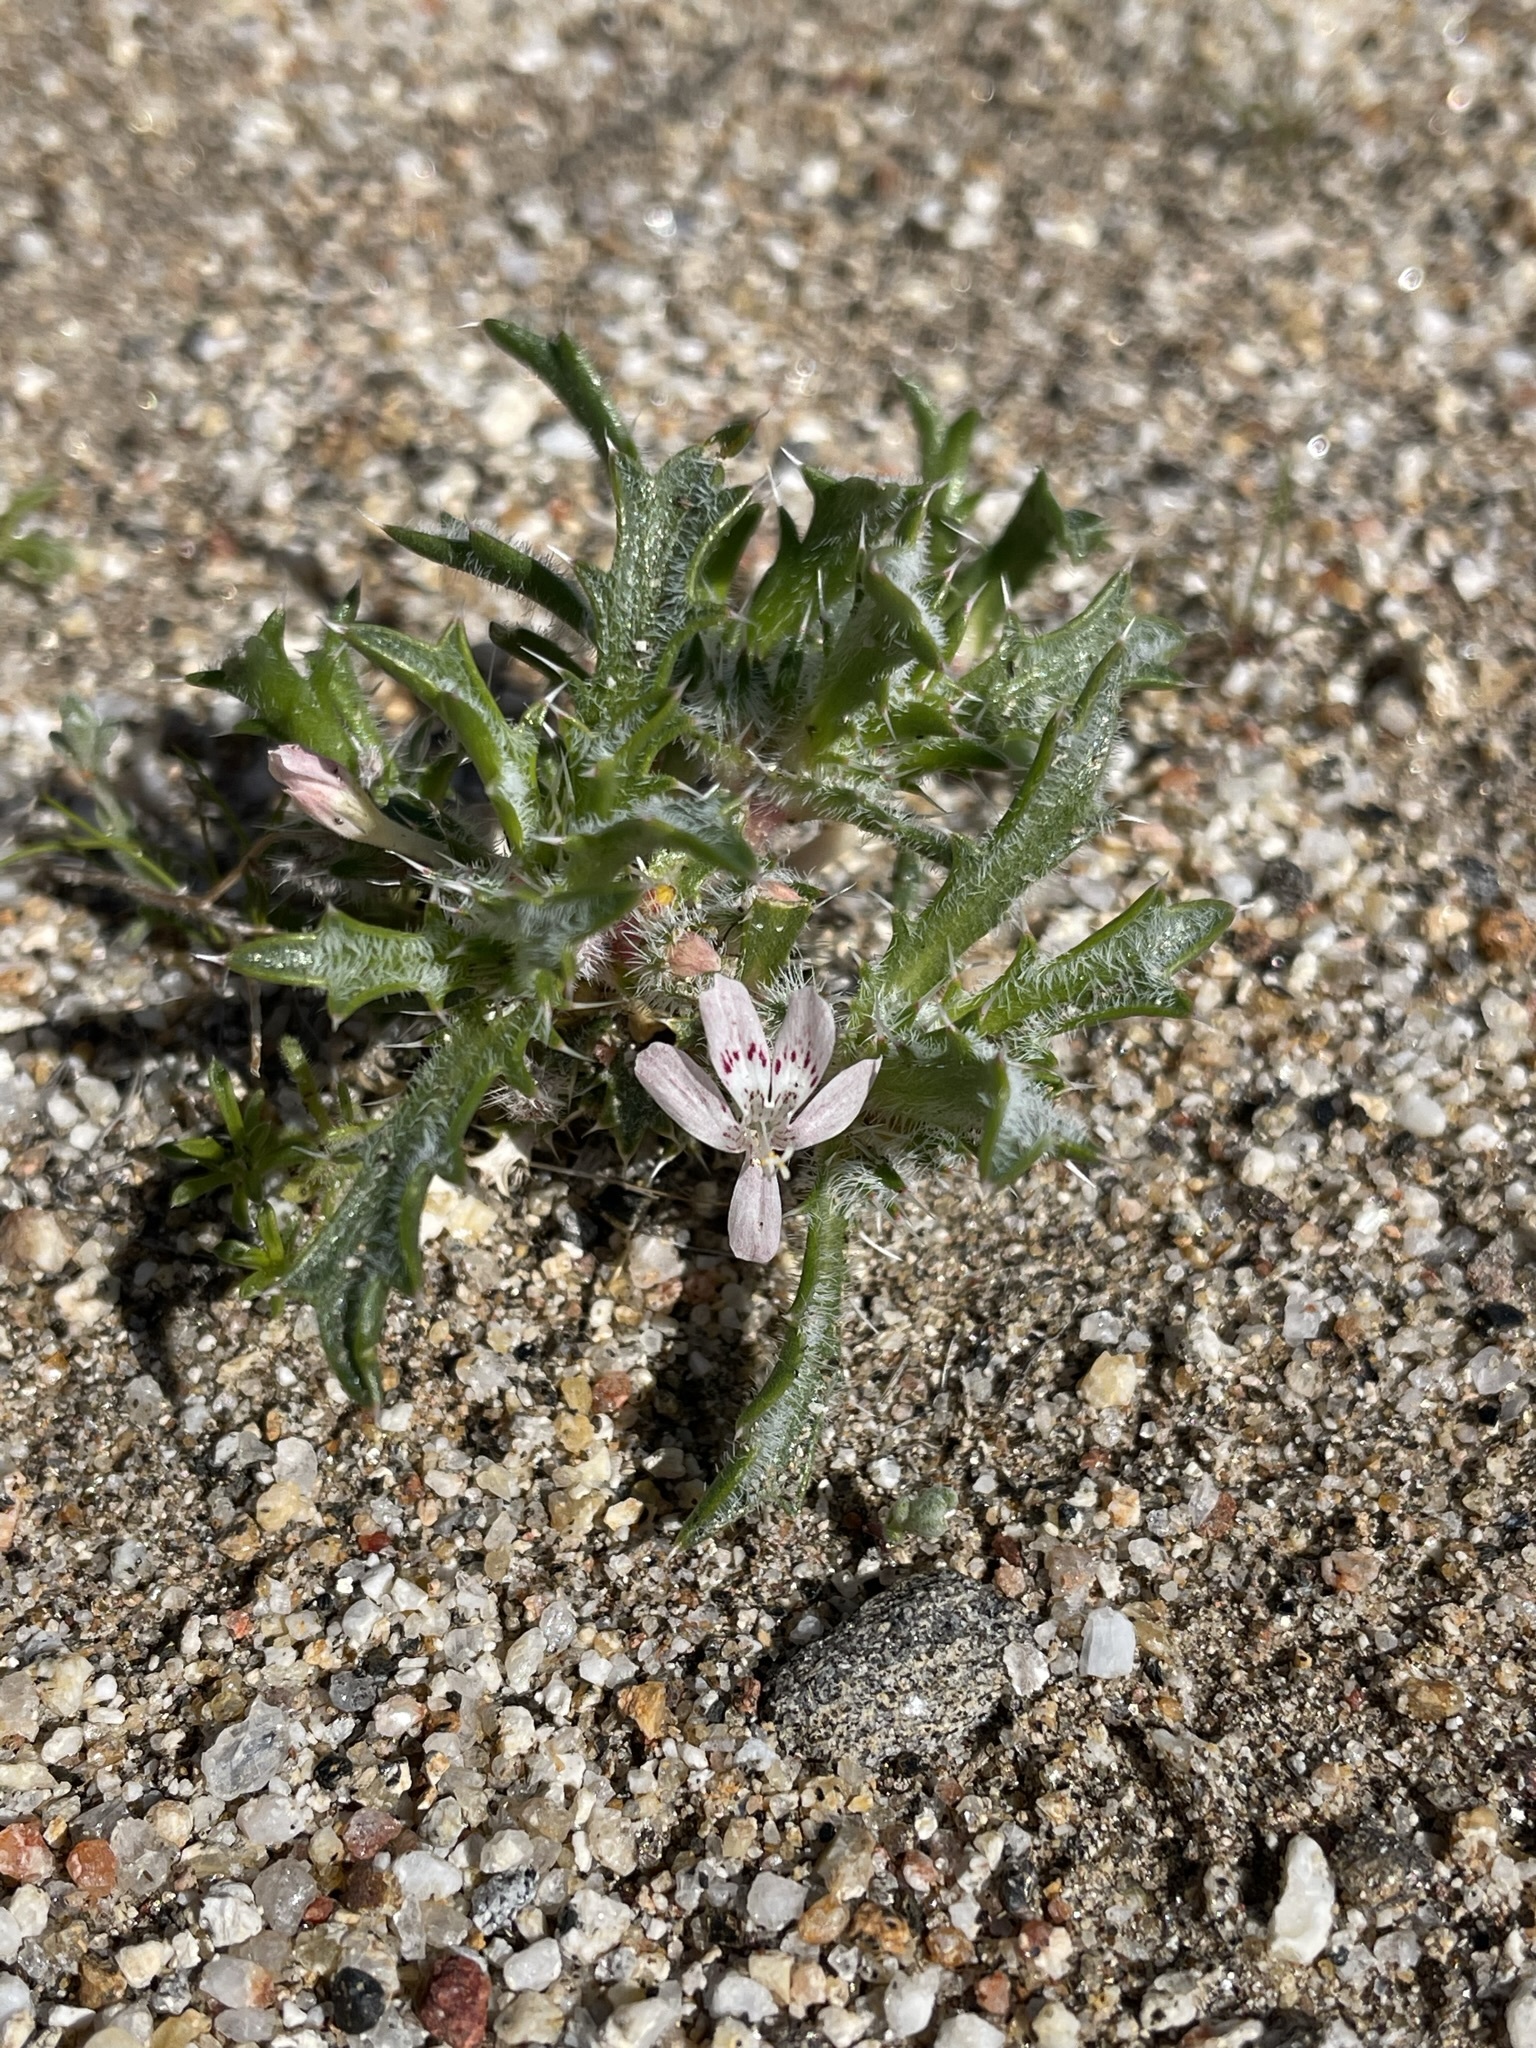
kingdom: Plantae
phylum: Tracheophyta
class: Magnoliopsida
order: Ericales
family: Polemoniaceae
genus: Loeseliastrum
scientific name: Loeseliastrum schottii
